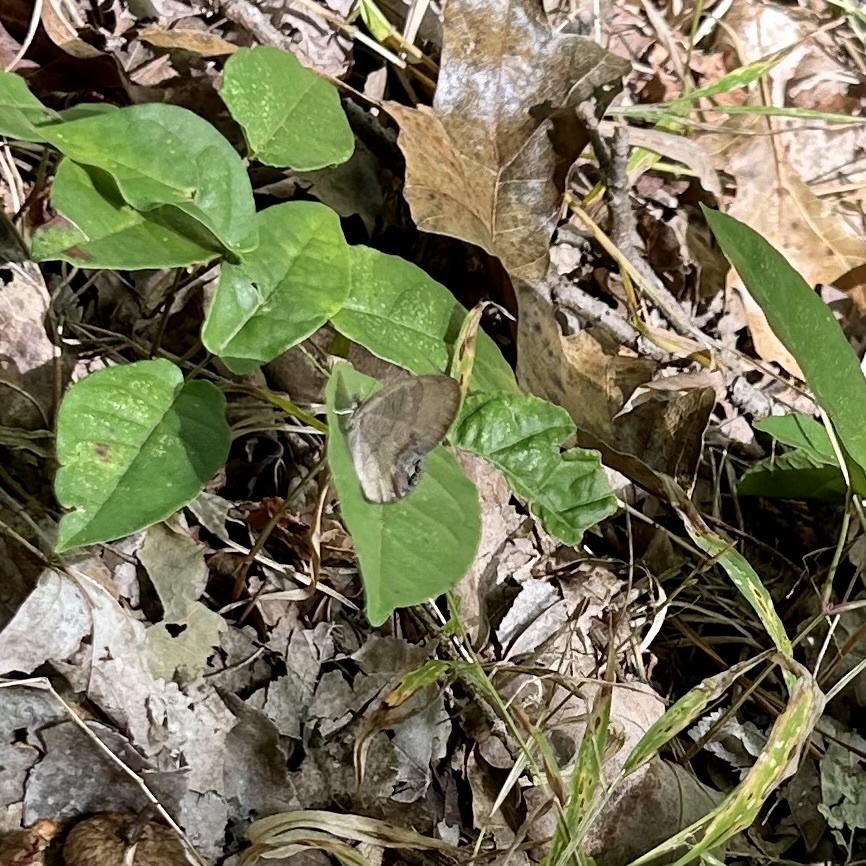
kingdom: Animalia
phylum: Arthropoda
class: Insecta
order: Lepidoptera
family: Nymphalidae
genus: Euptychia
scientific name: Euptychia cornelius
